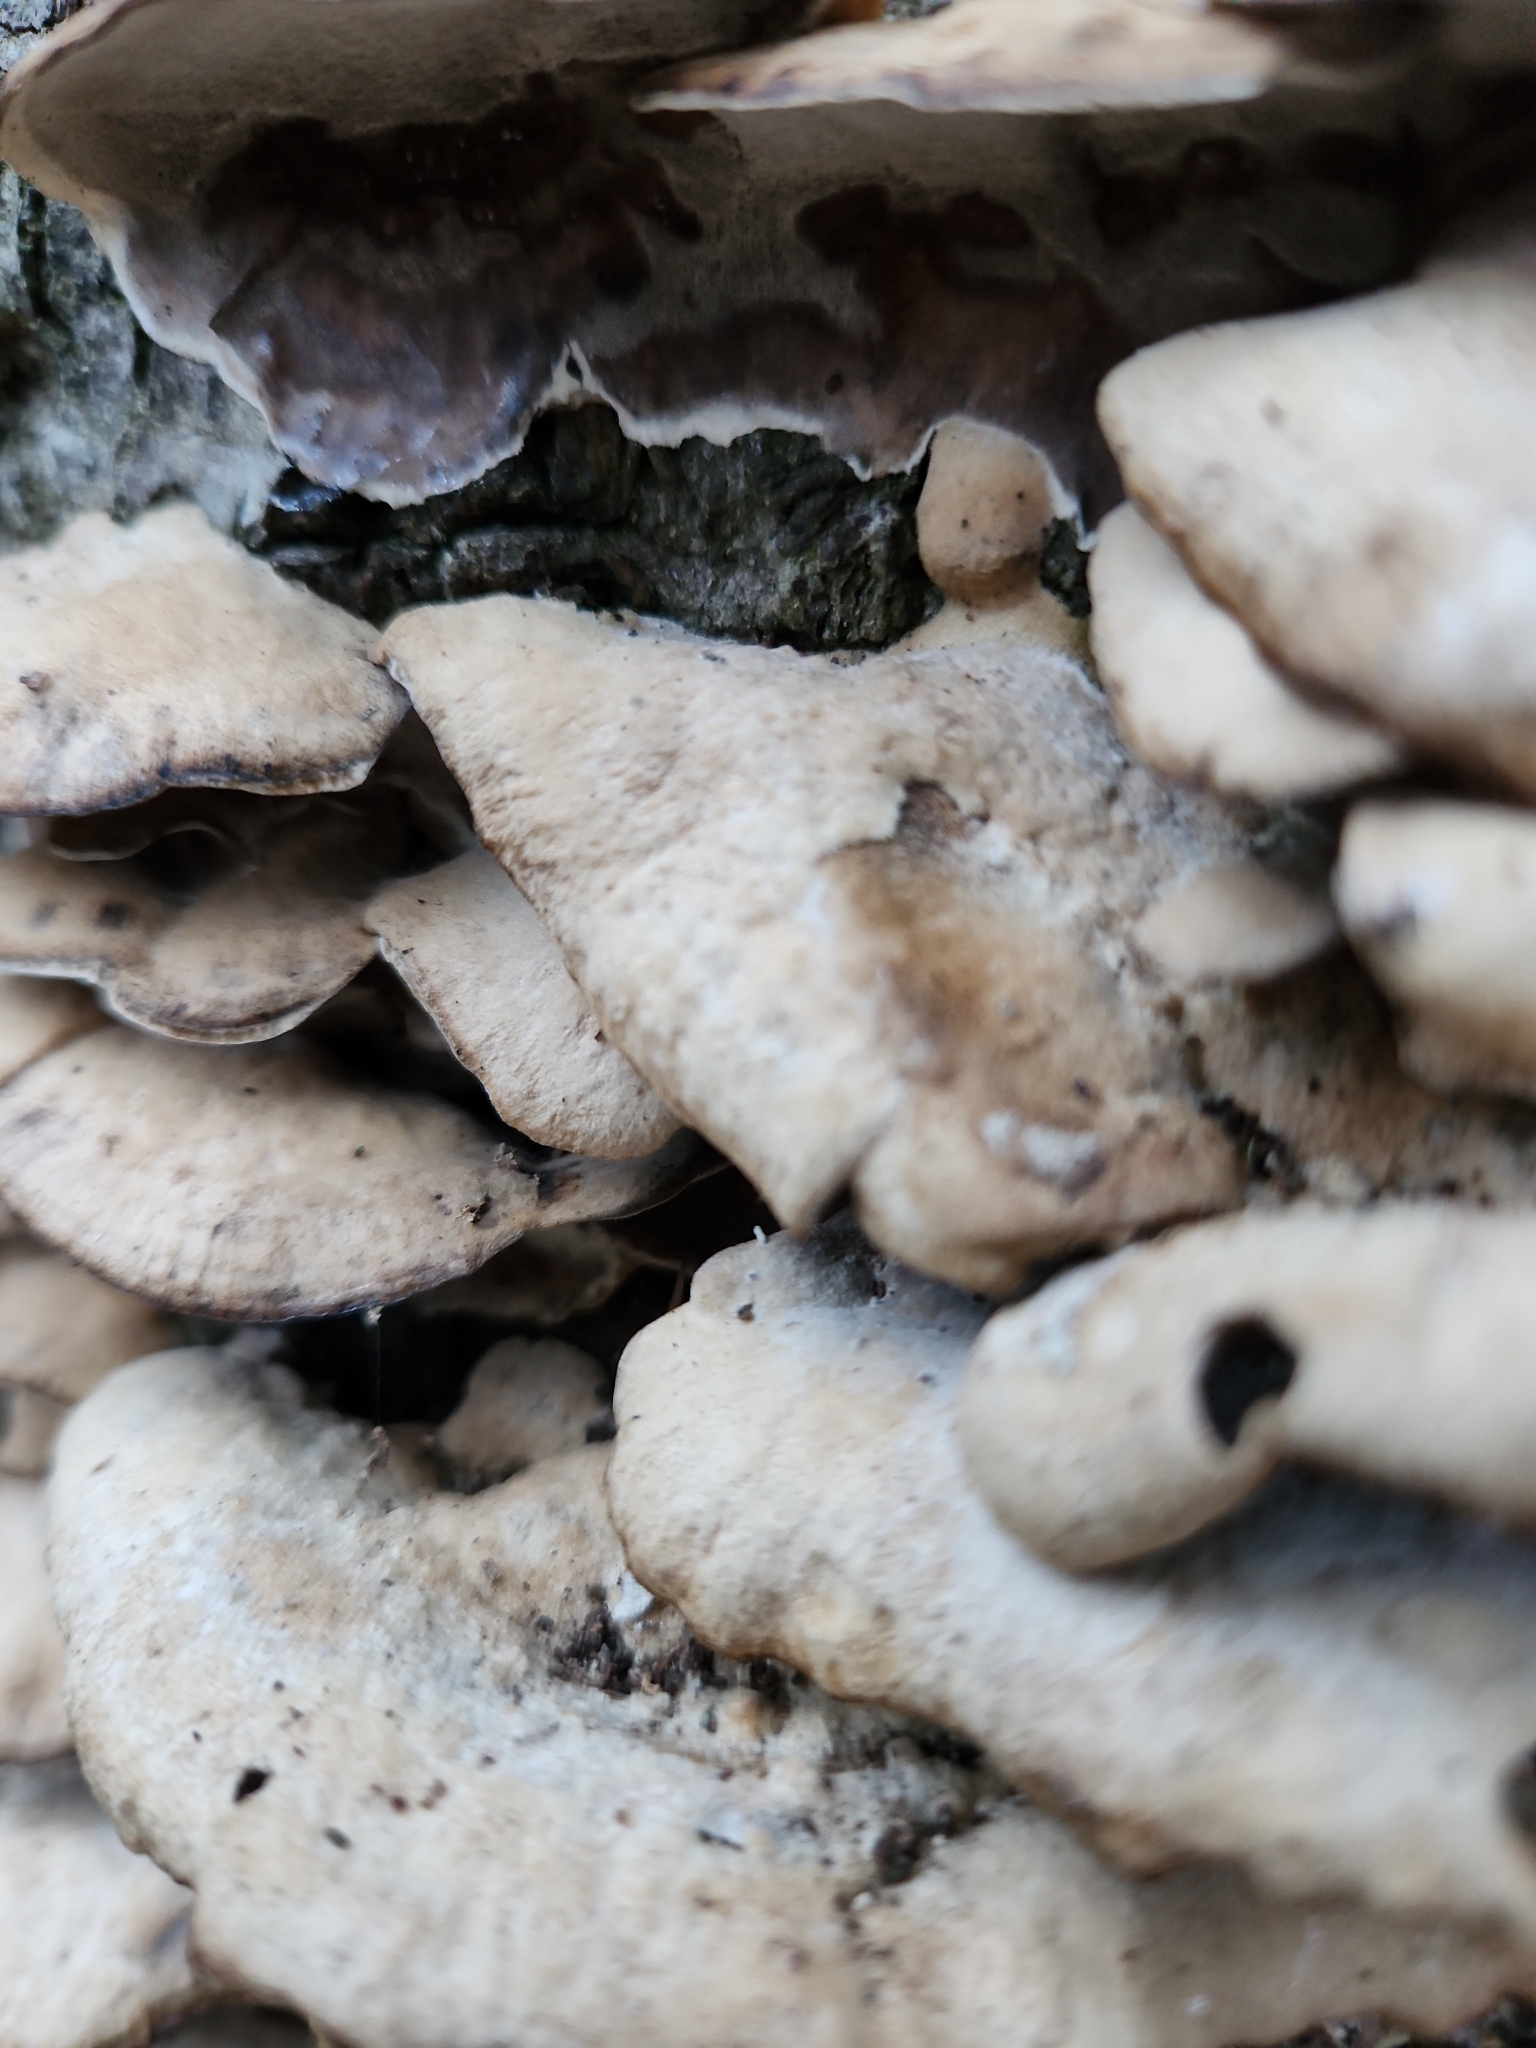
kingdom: Fungi
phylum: Basidiomycota
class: Agaricomycetes
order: Polyporales
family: Phanerochaetaceae
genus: Bjerkandera
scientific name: Bjerkandera adusta
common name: Smoky bracket
